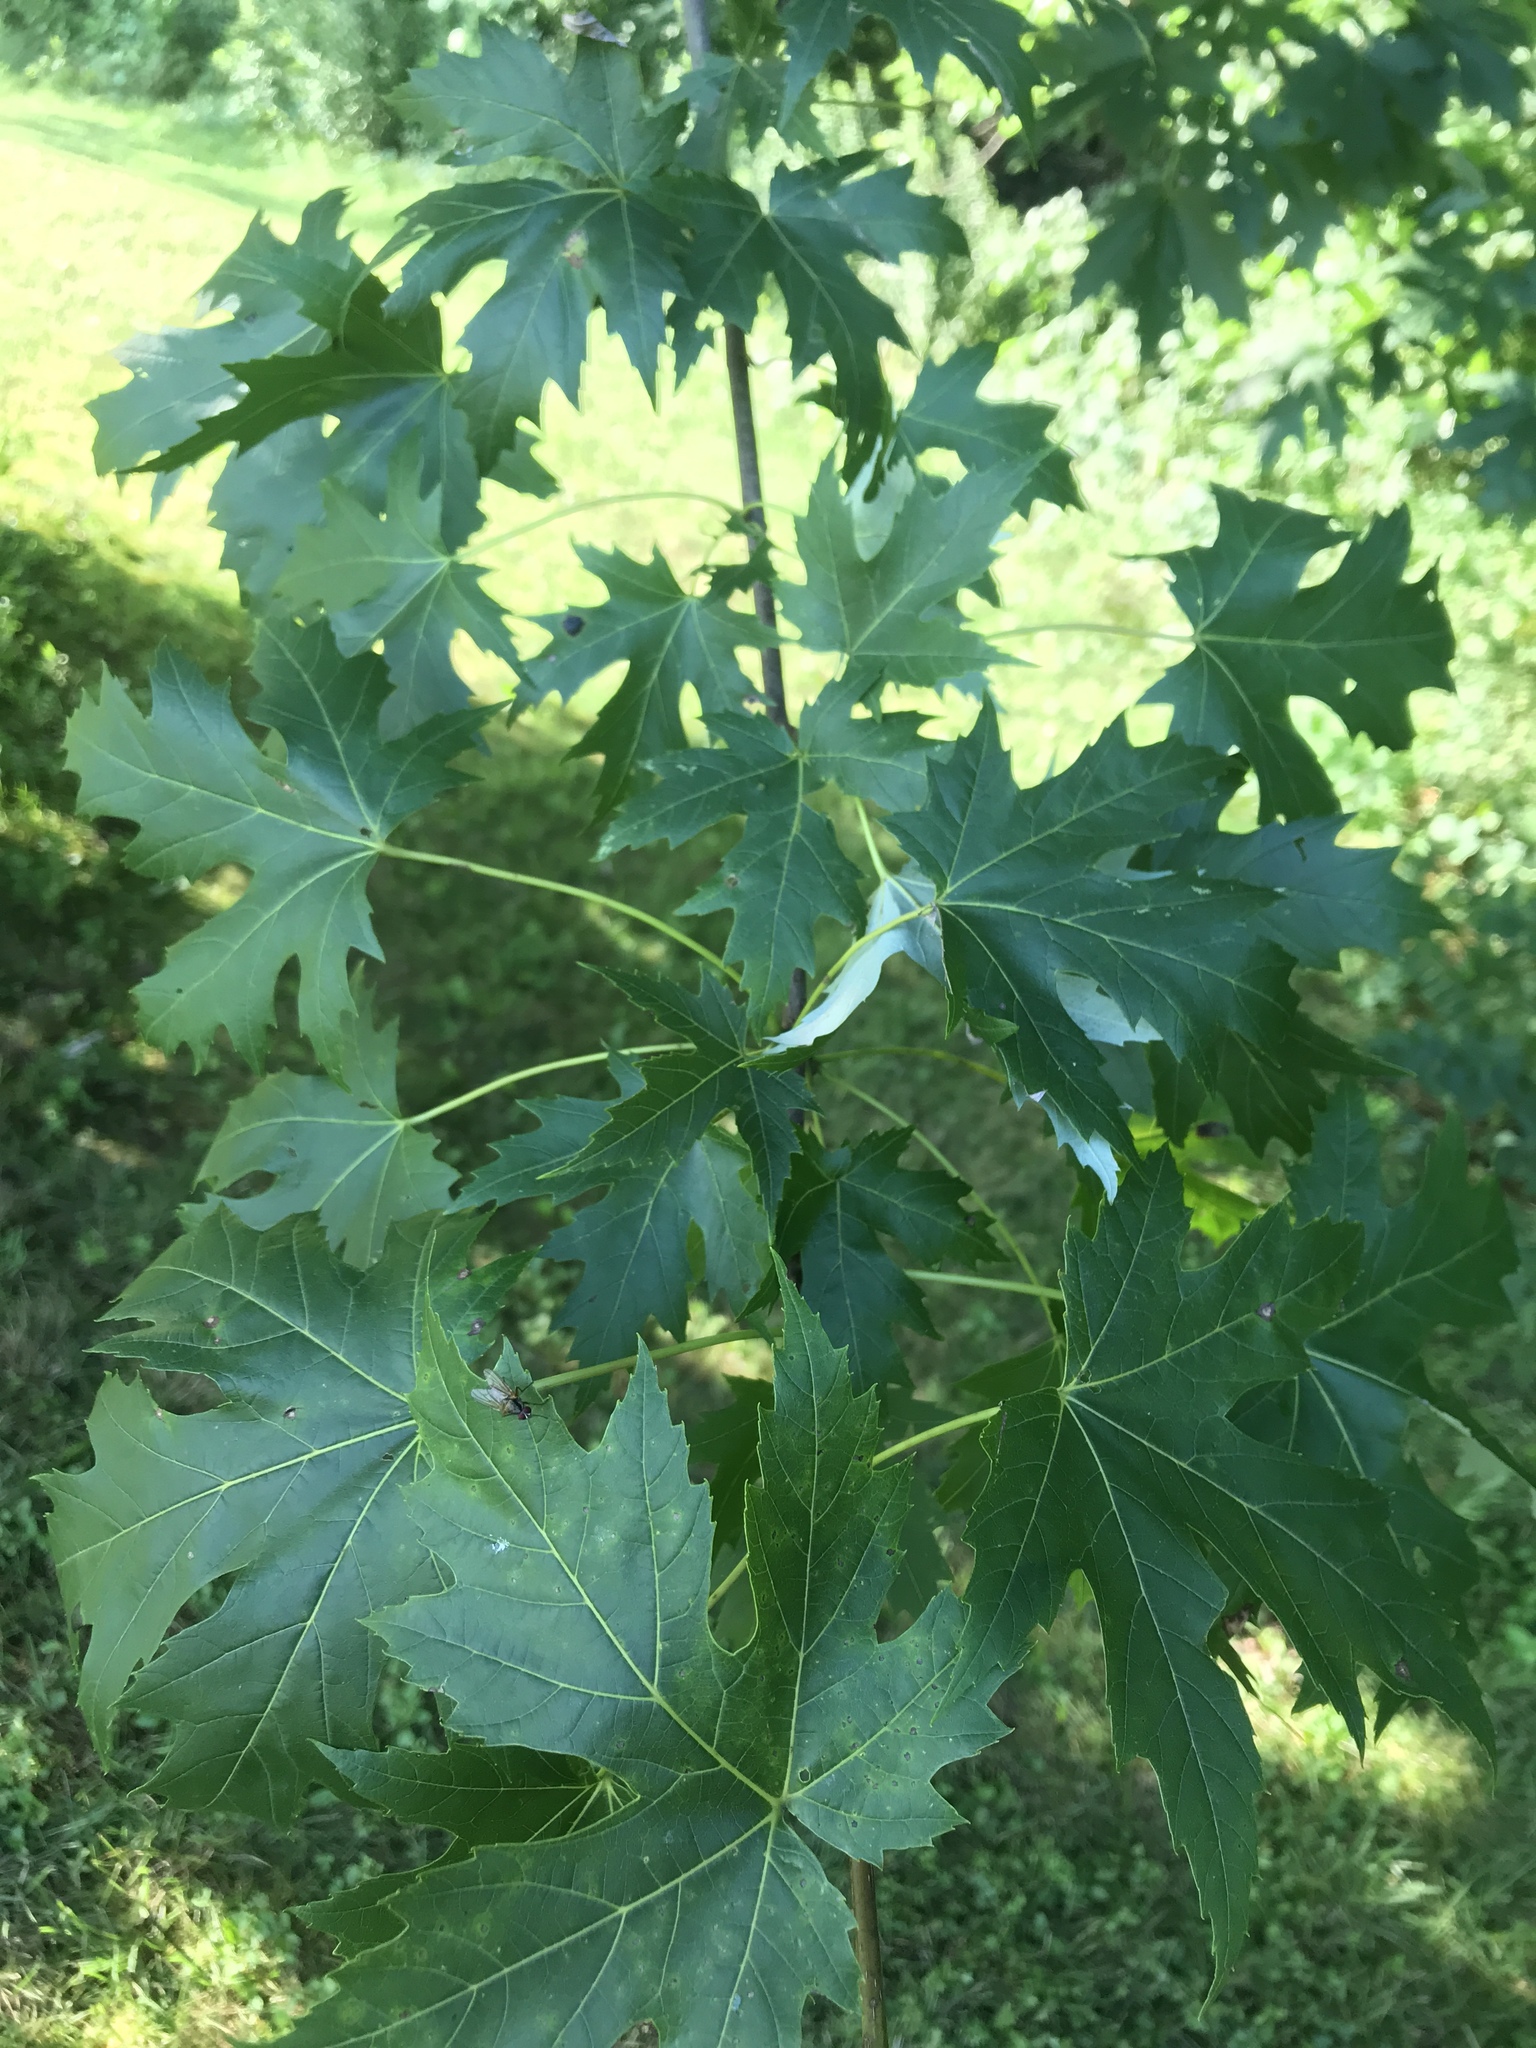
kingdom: Plantae
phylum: Tracheophyta
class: Magnoliopsida
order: Sapindales
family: Sapindaceae
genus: Acer
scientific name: Acer saccharinum
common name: Silver maple
